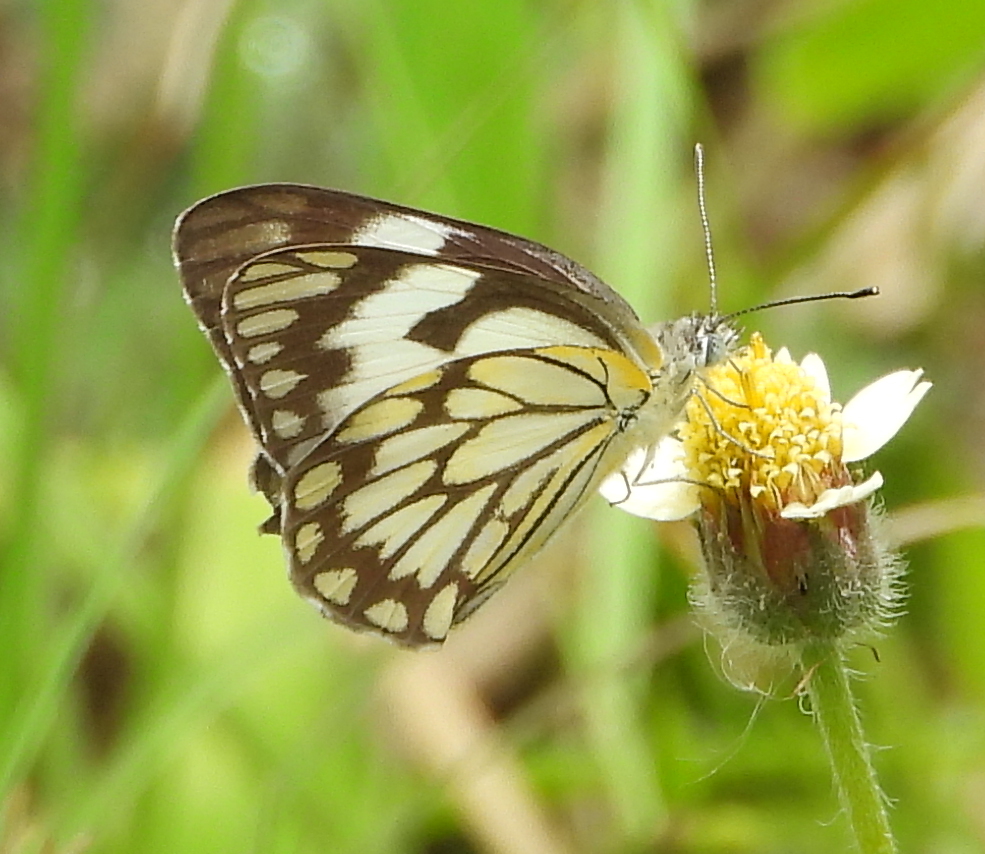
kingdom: Animalia
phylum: Arthropoda
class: Insecta
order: Lepidoptera
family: Pieridae
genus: Belenois
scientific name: Belenois aurota
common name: Brown-veined white
